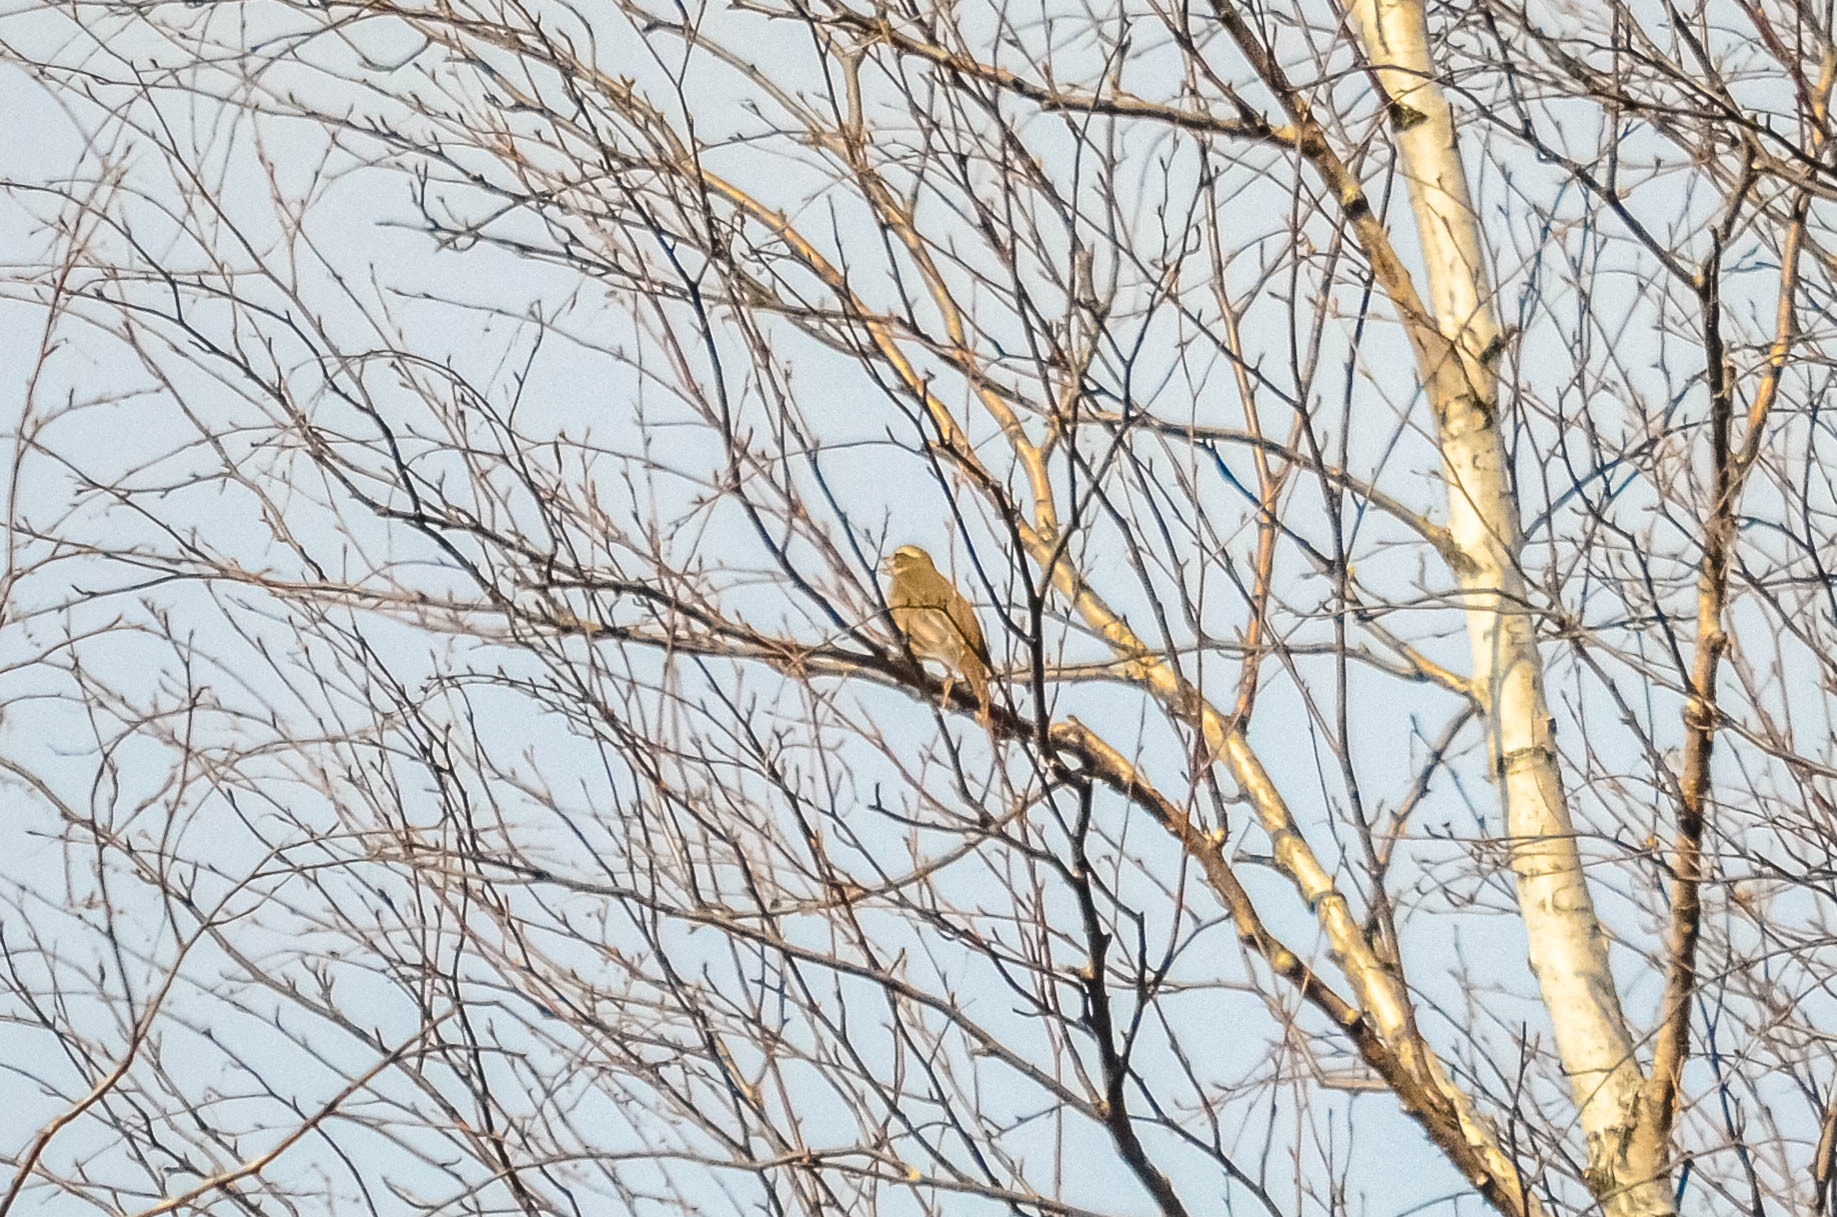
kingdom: Animalia
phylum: Chordata
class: Aves
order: Passeriformes
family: Turdidae
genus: Turdus
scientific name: Turdus iliacus
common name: Redwing
